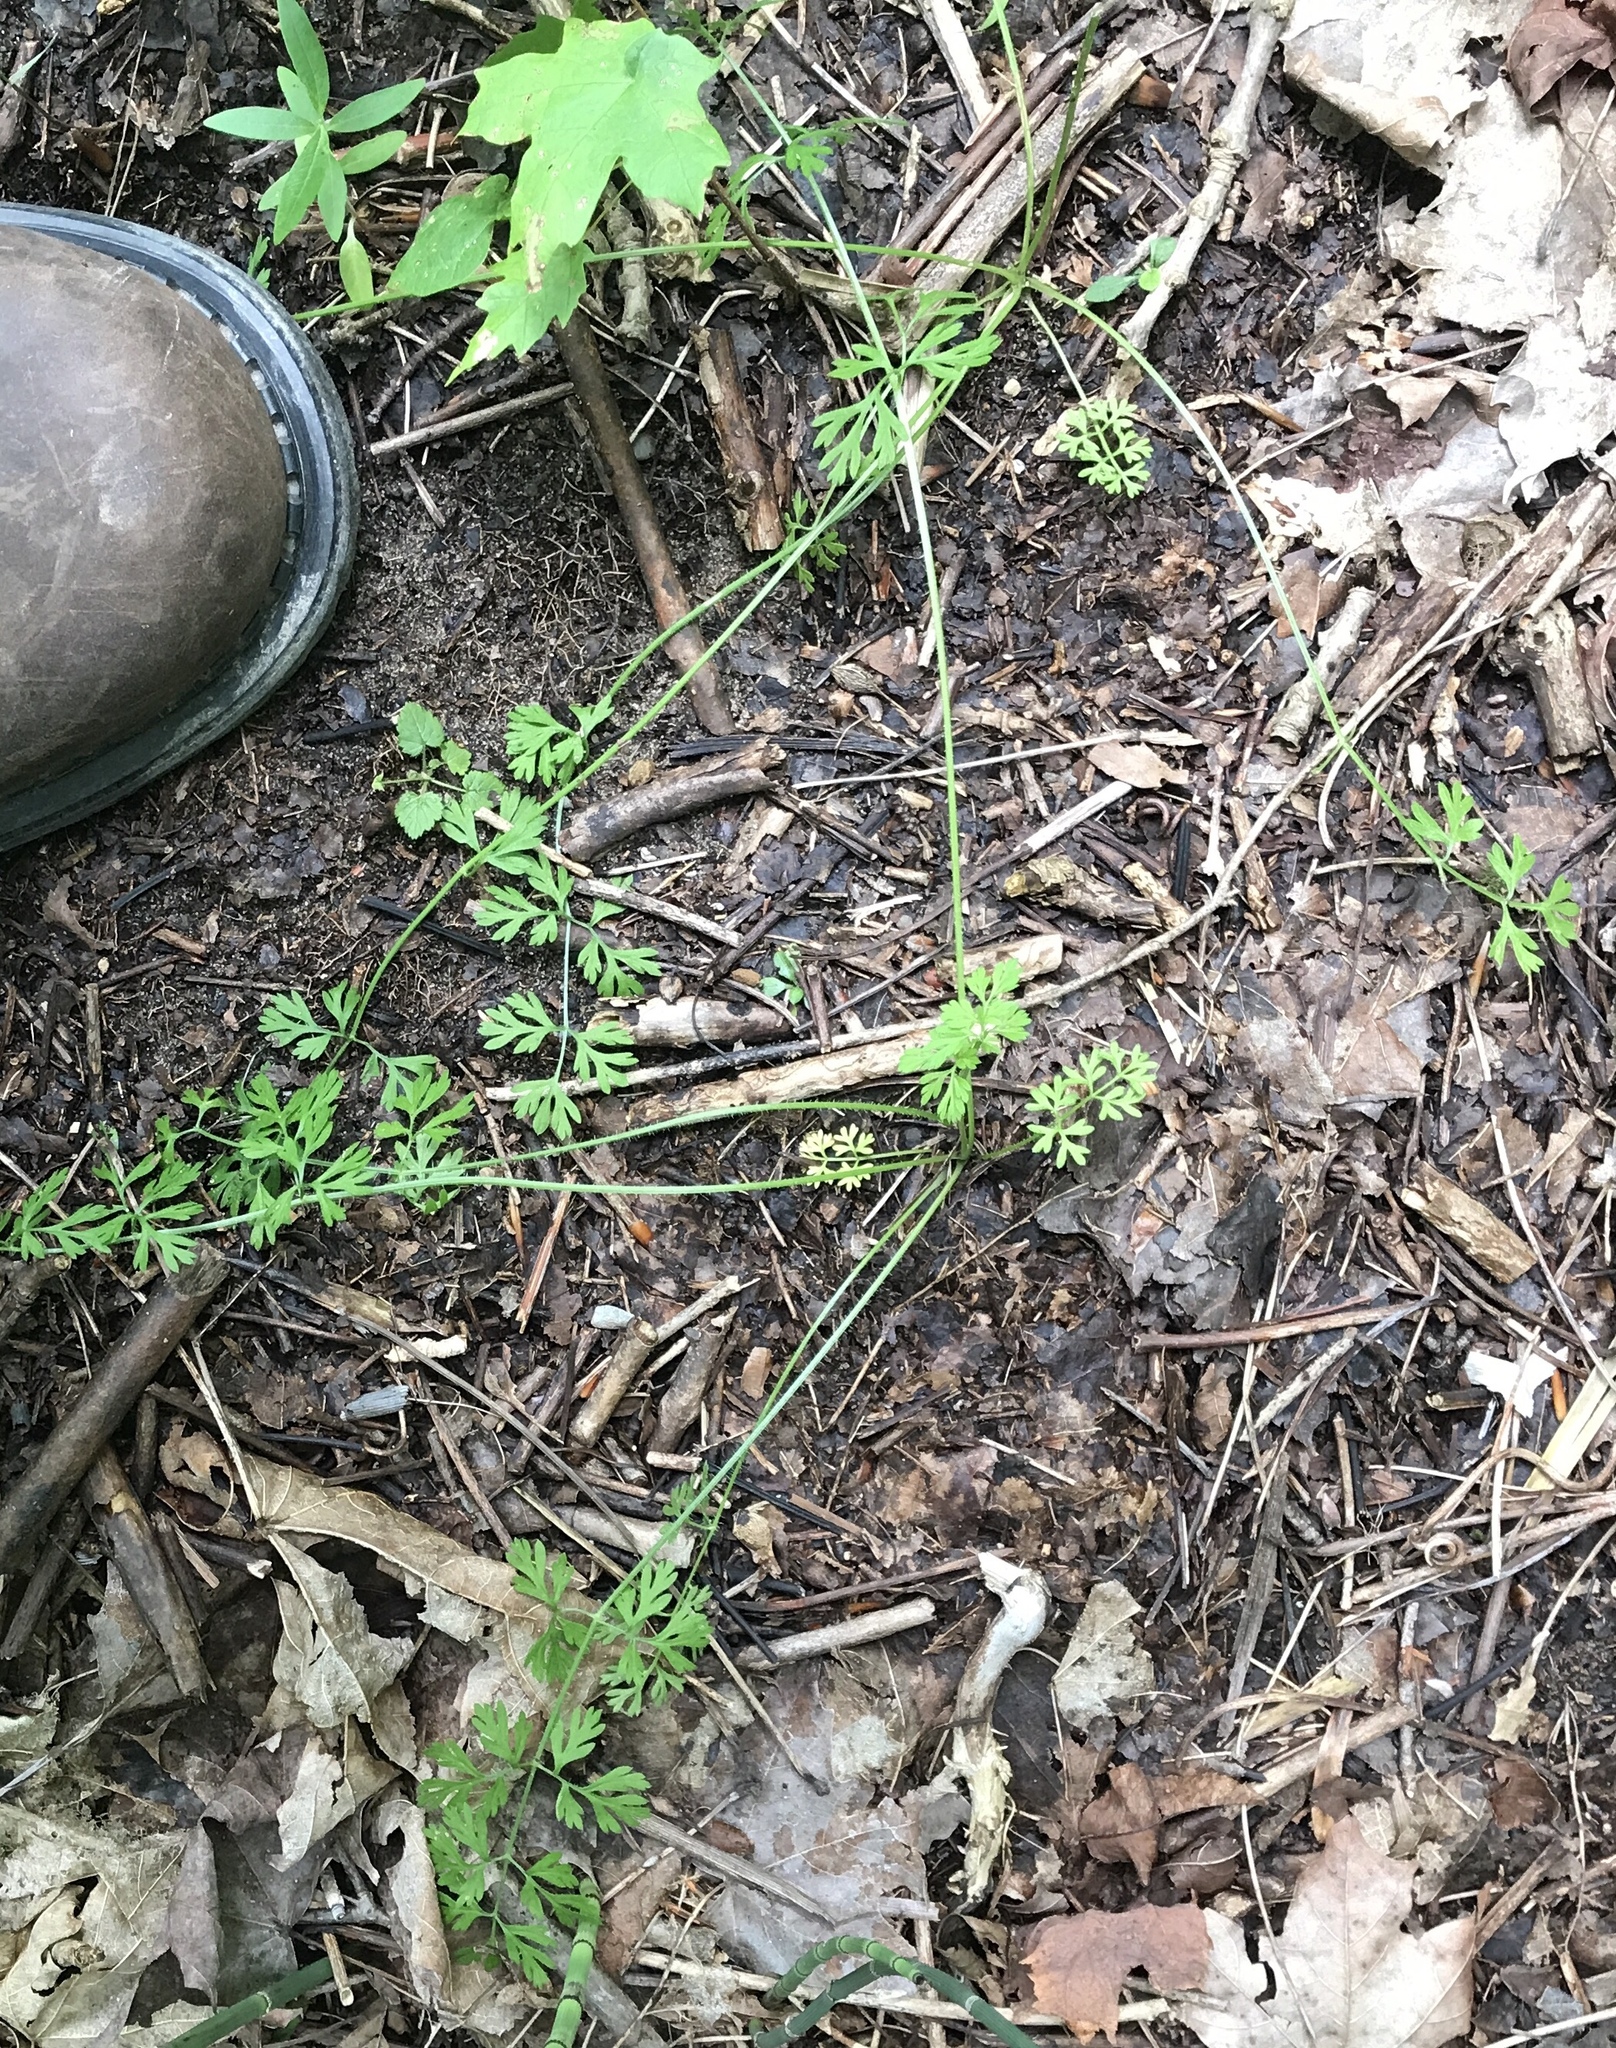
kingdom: Plantae
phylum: Tracheophyta
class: Magnoliopsida
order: Apiales
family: Apiaceae
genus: Daucus
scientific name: Daucus carota
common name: Wild carrot
